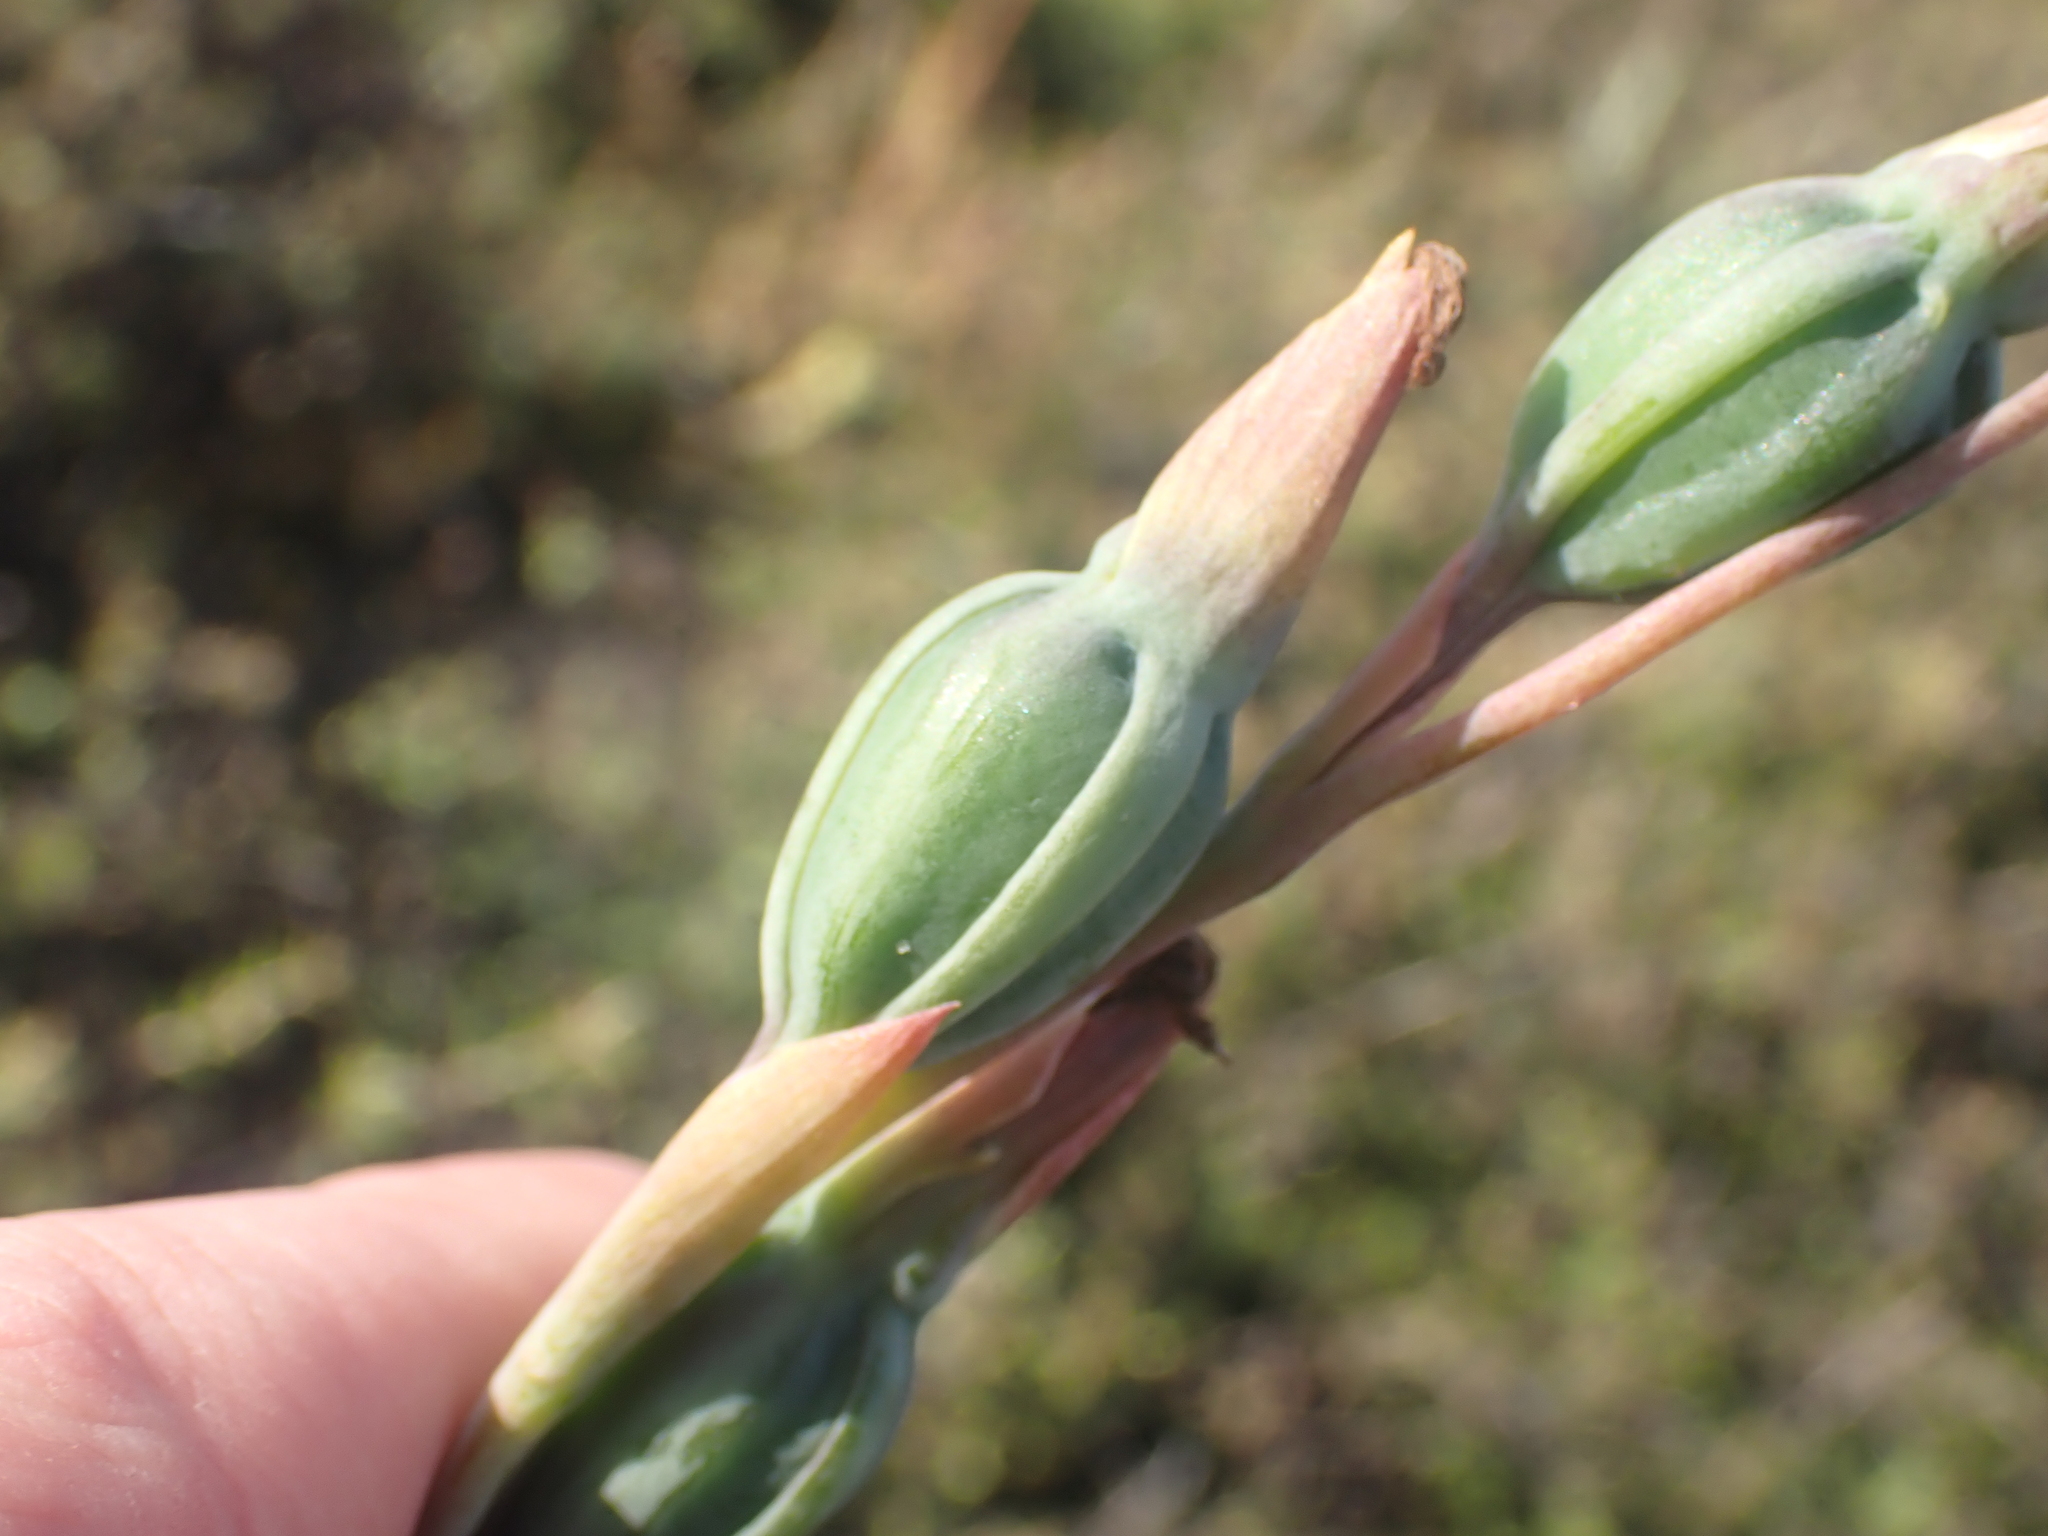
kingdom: Plantae
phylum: Tracheophyta
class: Liliopsida
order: Asparagales
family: Orchidaceae
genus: Calochilus
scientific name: Calochilus robertsonii
